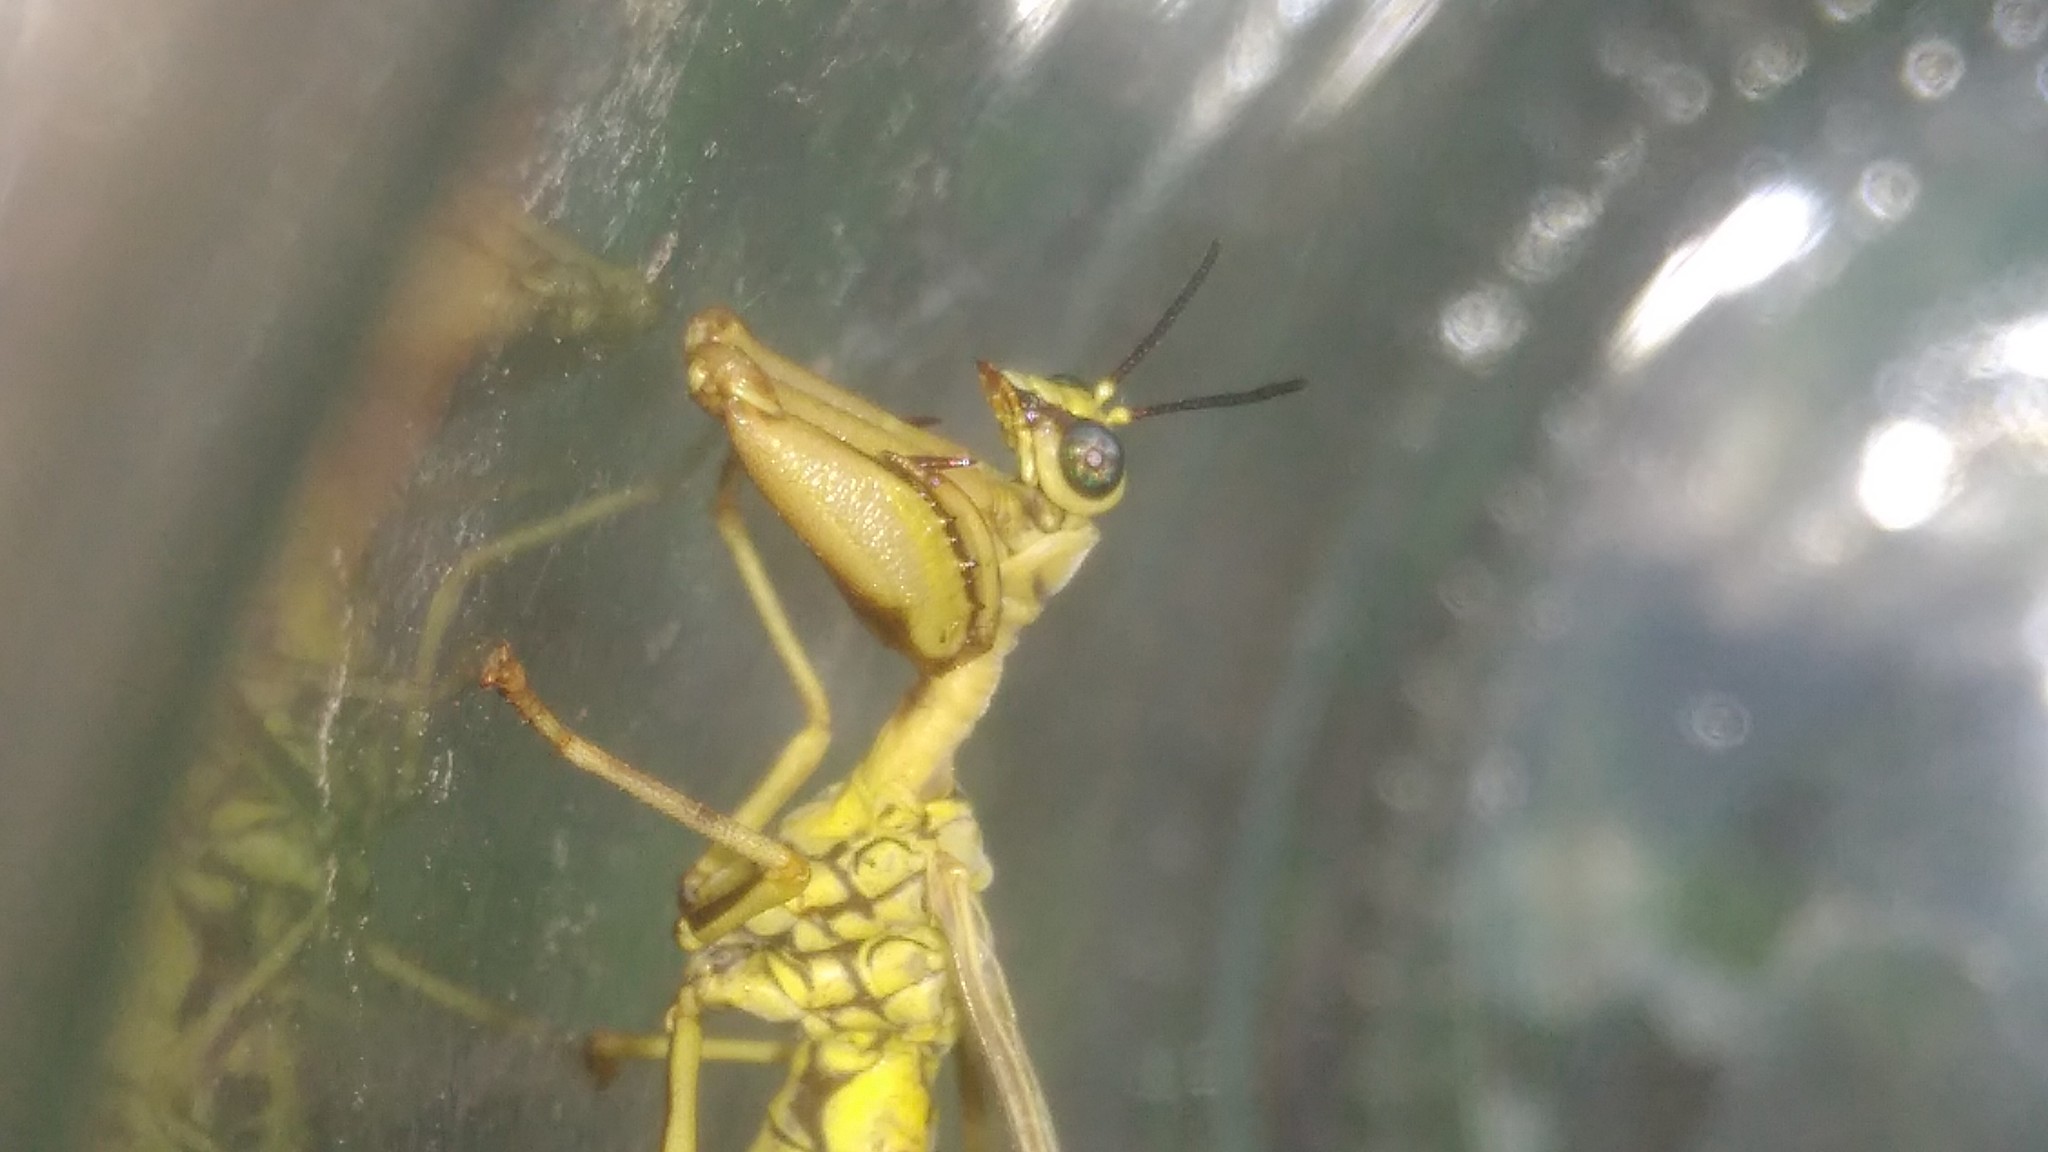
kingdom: Animalia
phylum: Arthropoda
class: Insecta
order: Neuroptera
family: Mantispidae
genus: Paramantispa
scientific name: Paramantispa ambusta
